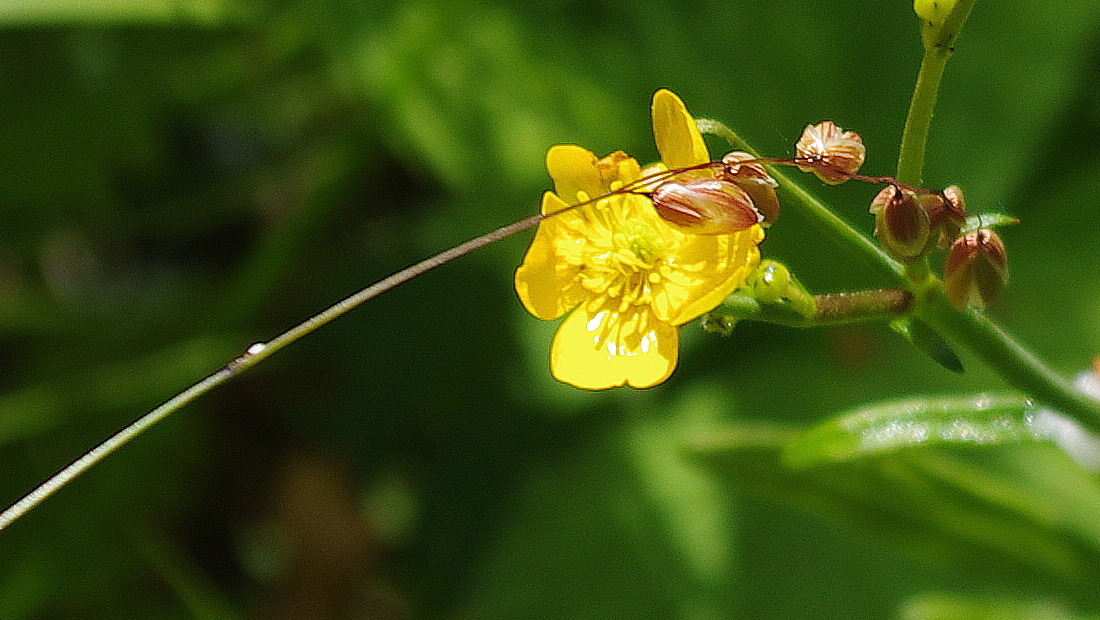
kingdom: Plantae
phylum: Tracheophyta
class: Liliopsida
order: Poales
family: Poaceae
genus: Melica
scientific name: Melica nutans
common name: Mountain melick
